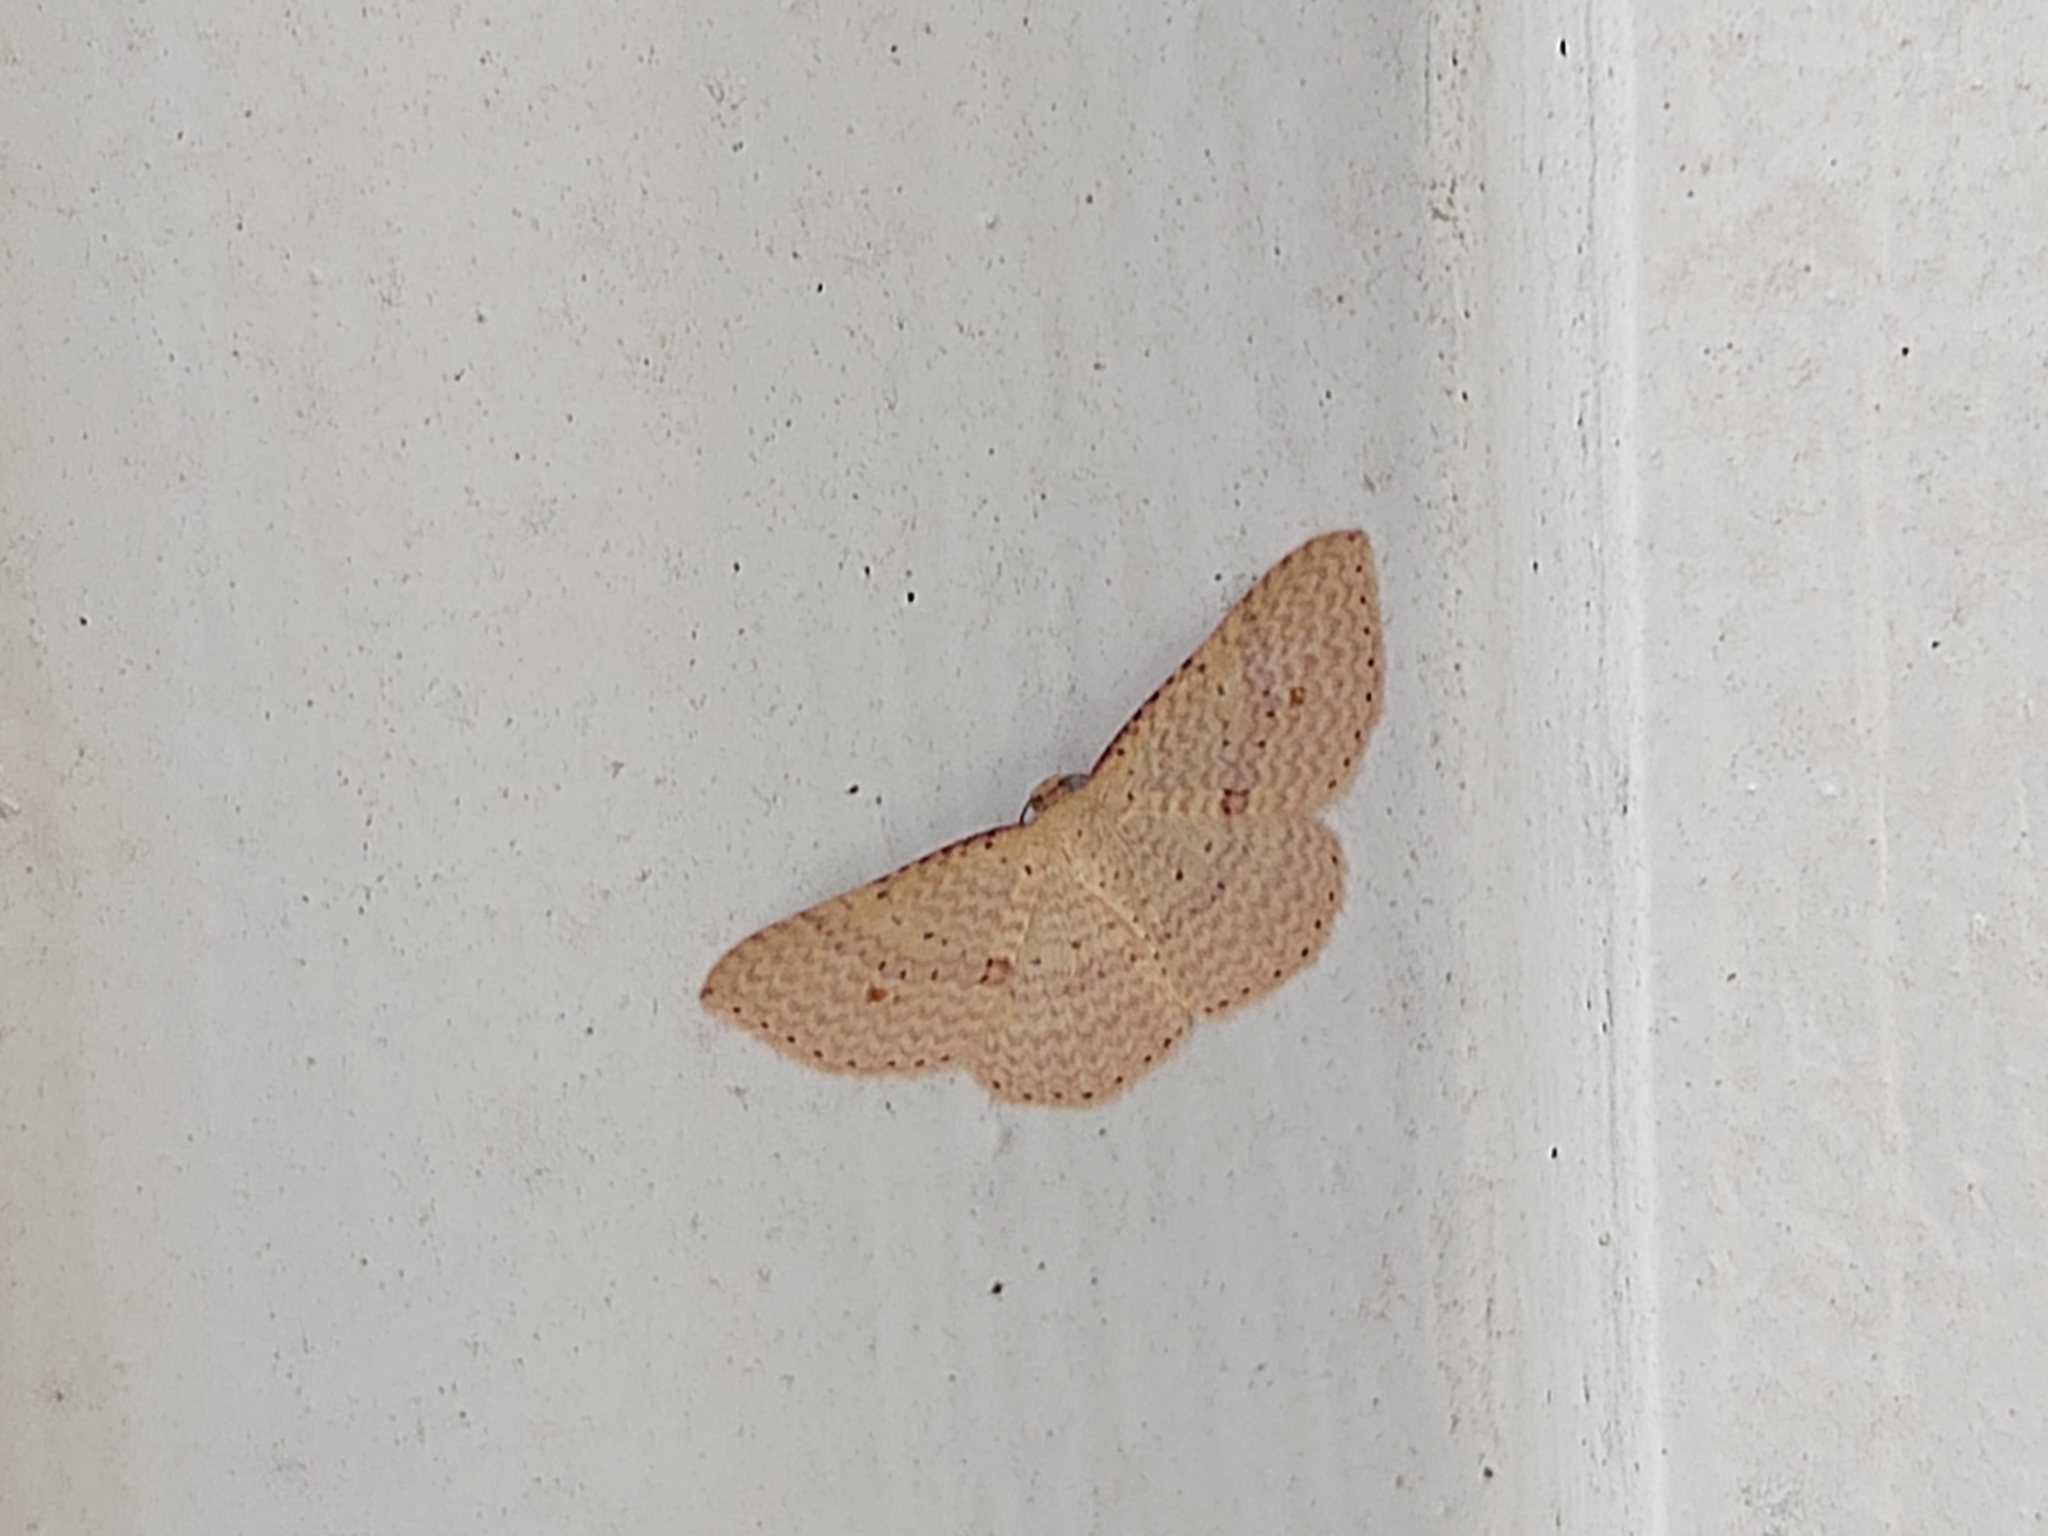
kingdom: Animalia
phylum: Arthropoda
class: Insecta
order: Lepidoptera
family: Geometridae
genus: Epicyme
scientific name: Epicyme rubropunctaria
